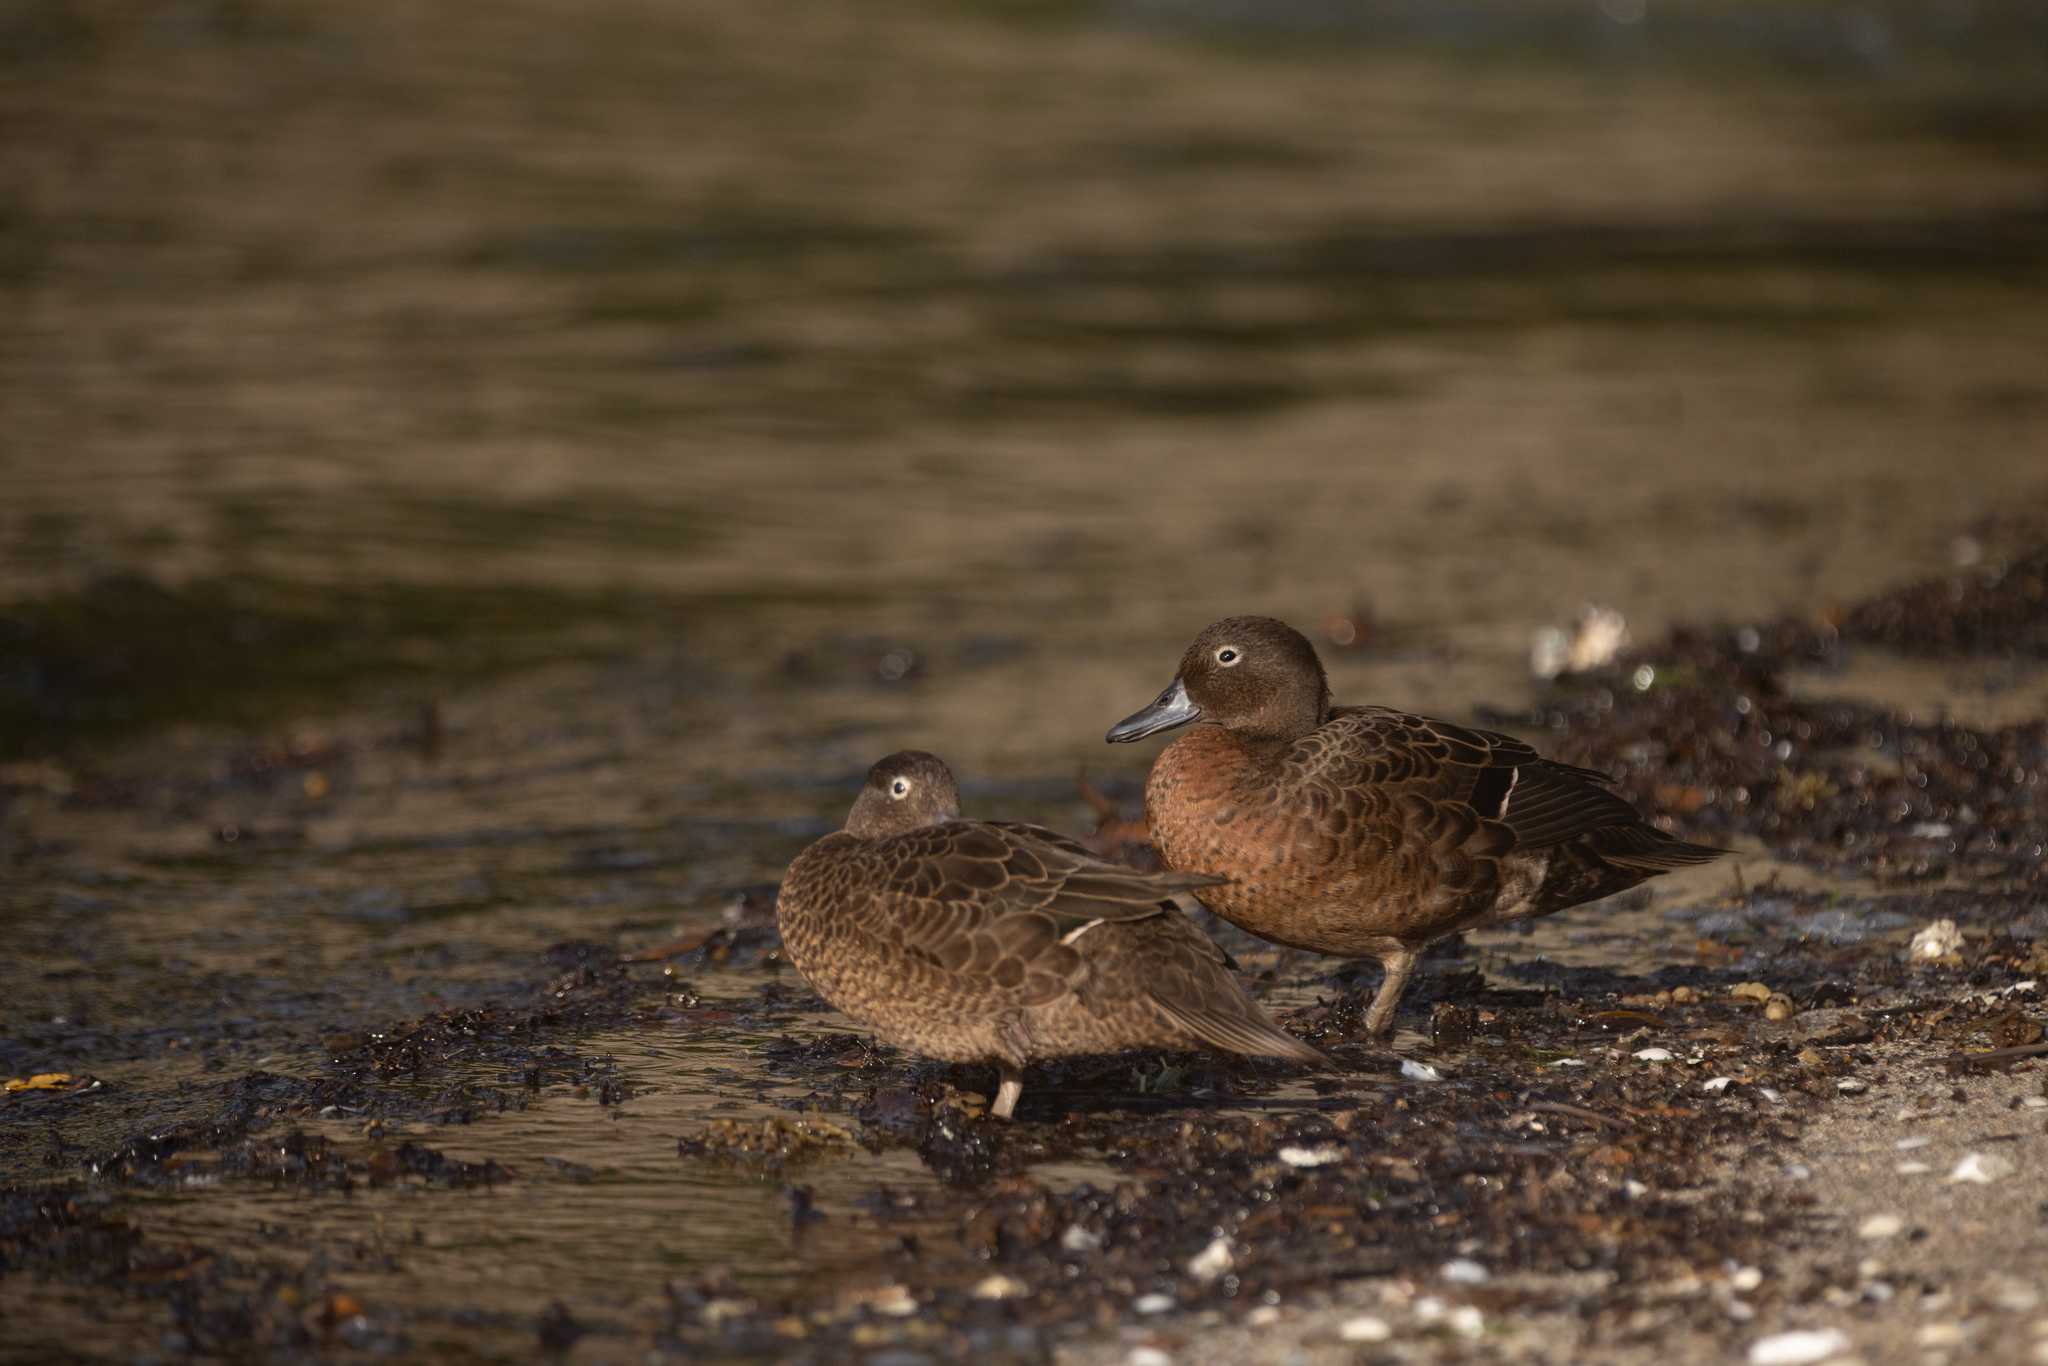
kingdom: Animalia
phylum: Chordata
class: Aves
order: Anseriformes
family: Anatidae
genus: Anas
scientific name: Anas chlorotis
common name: Brown teal
